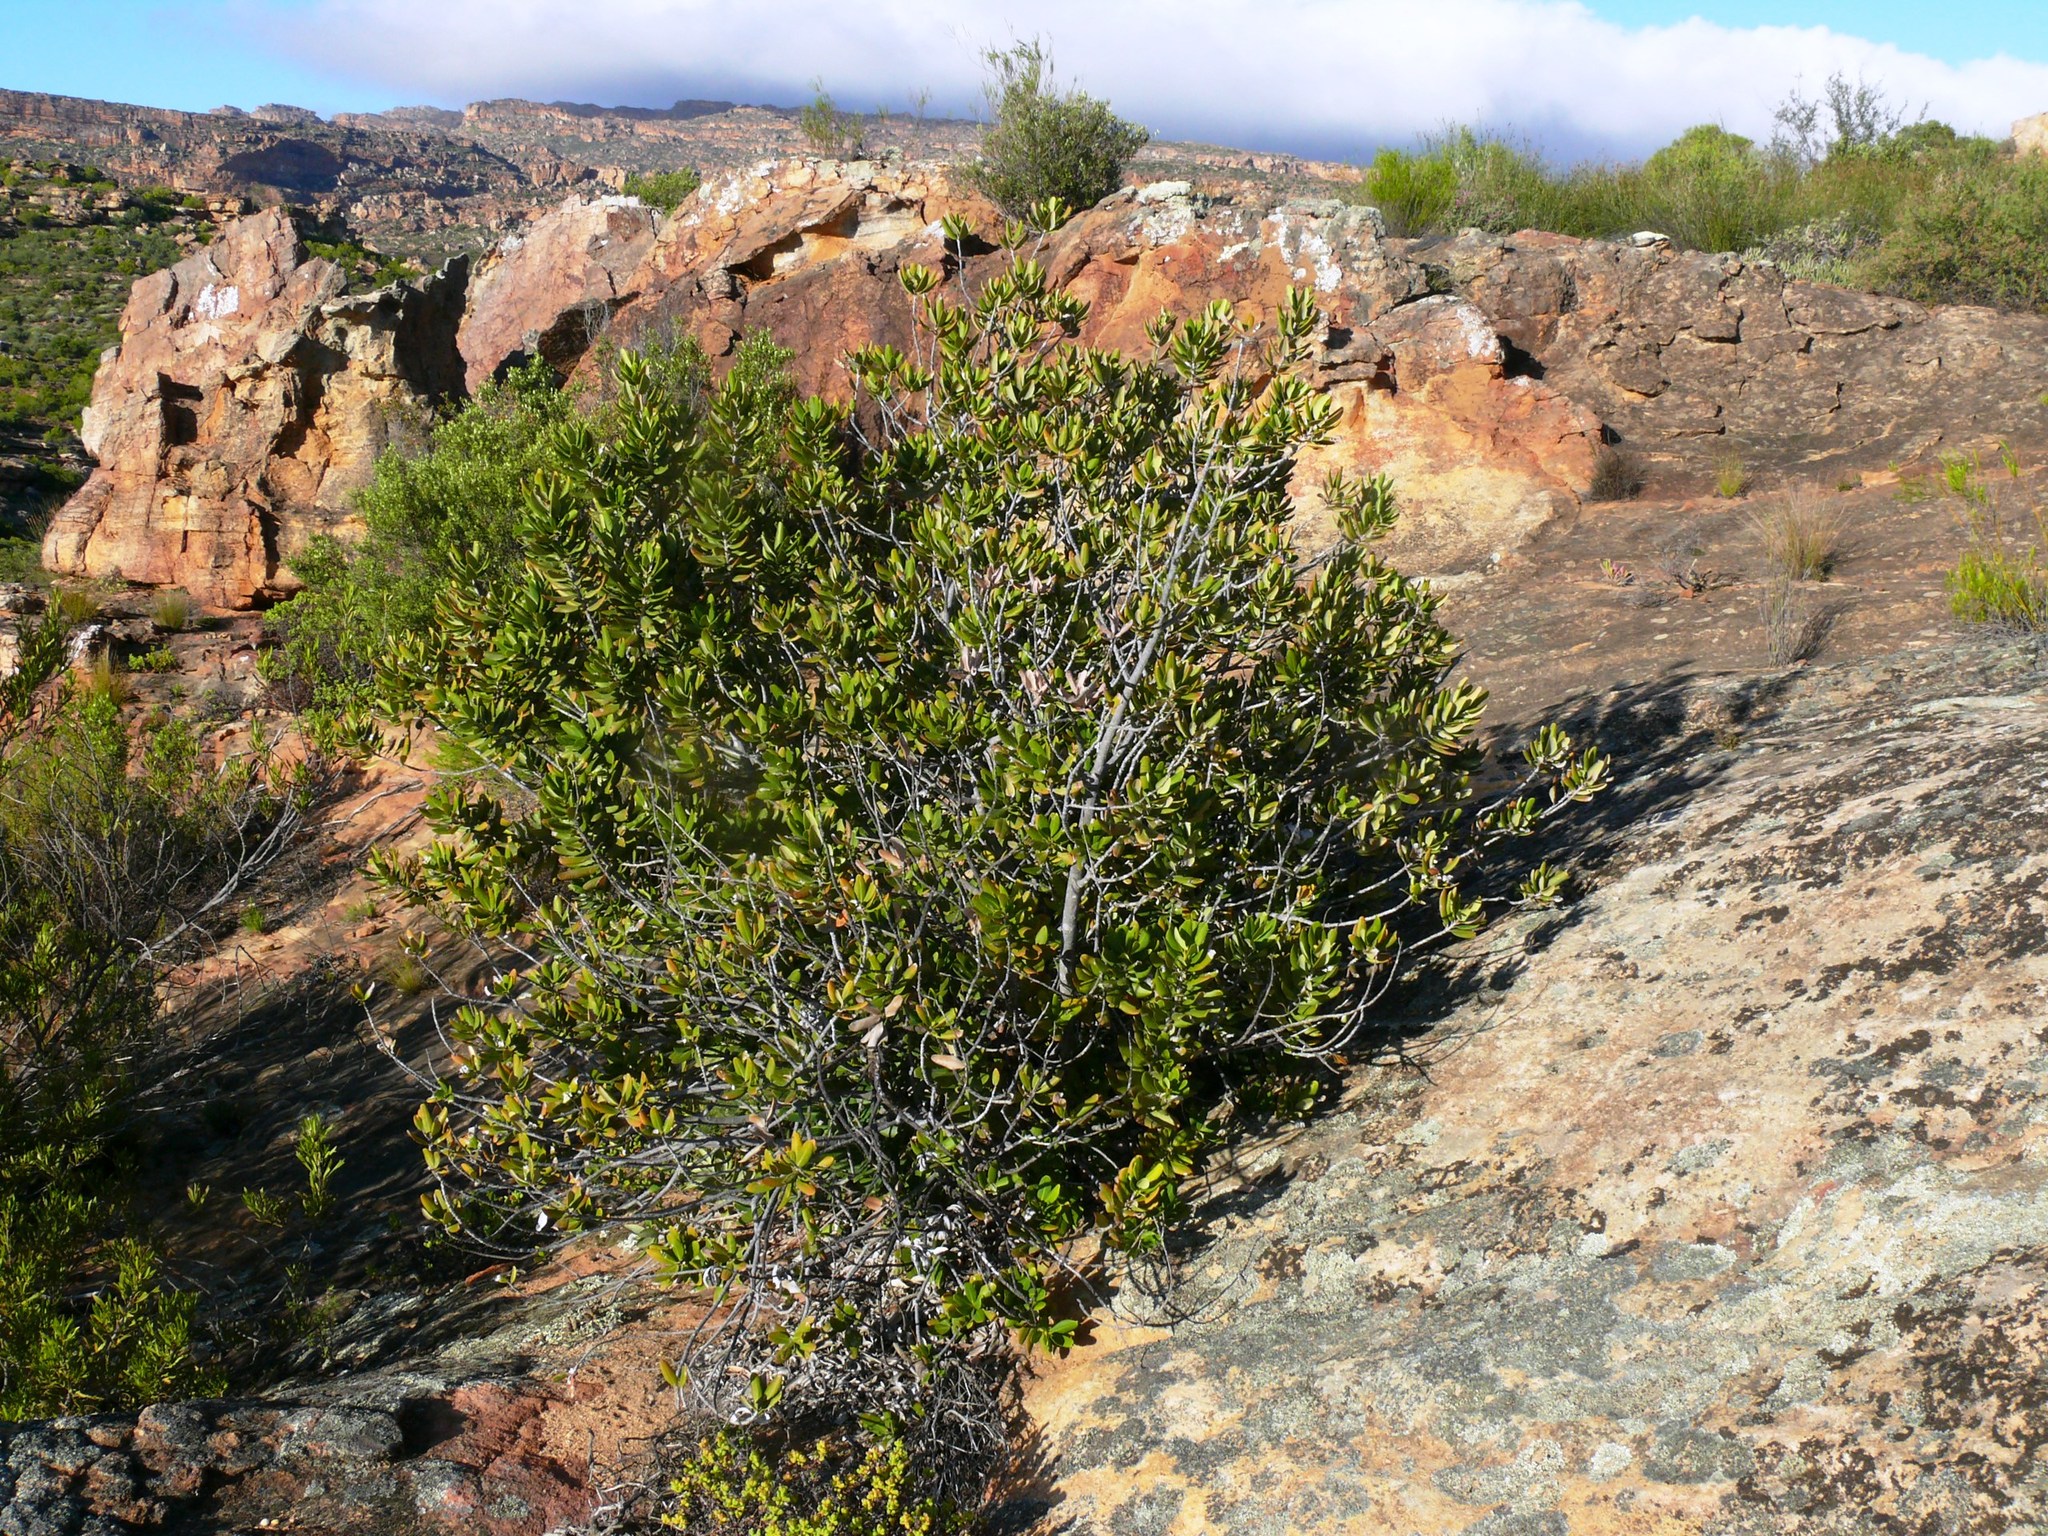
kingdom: Plantae
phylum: Tracheophyta
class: Magnoliopsida
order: Sapindales
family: Anacardiaceae
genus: Heeria
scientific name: Heeria argentea
